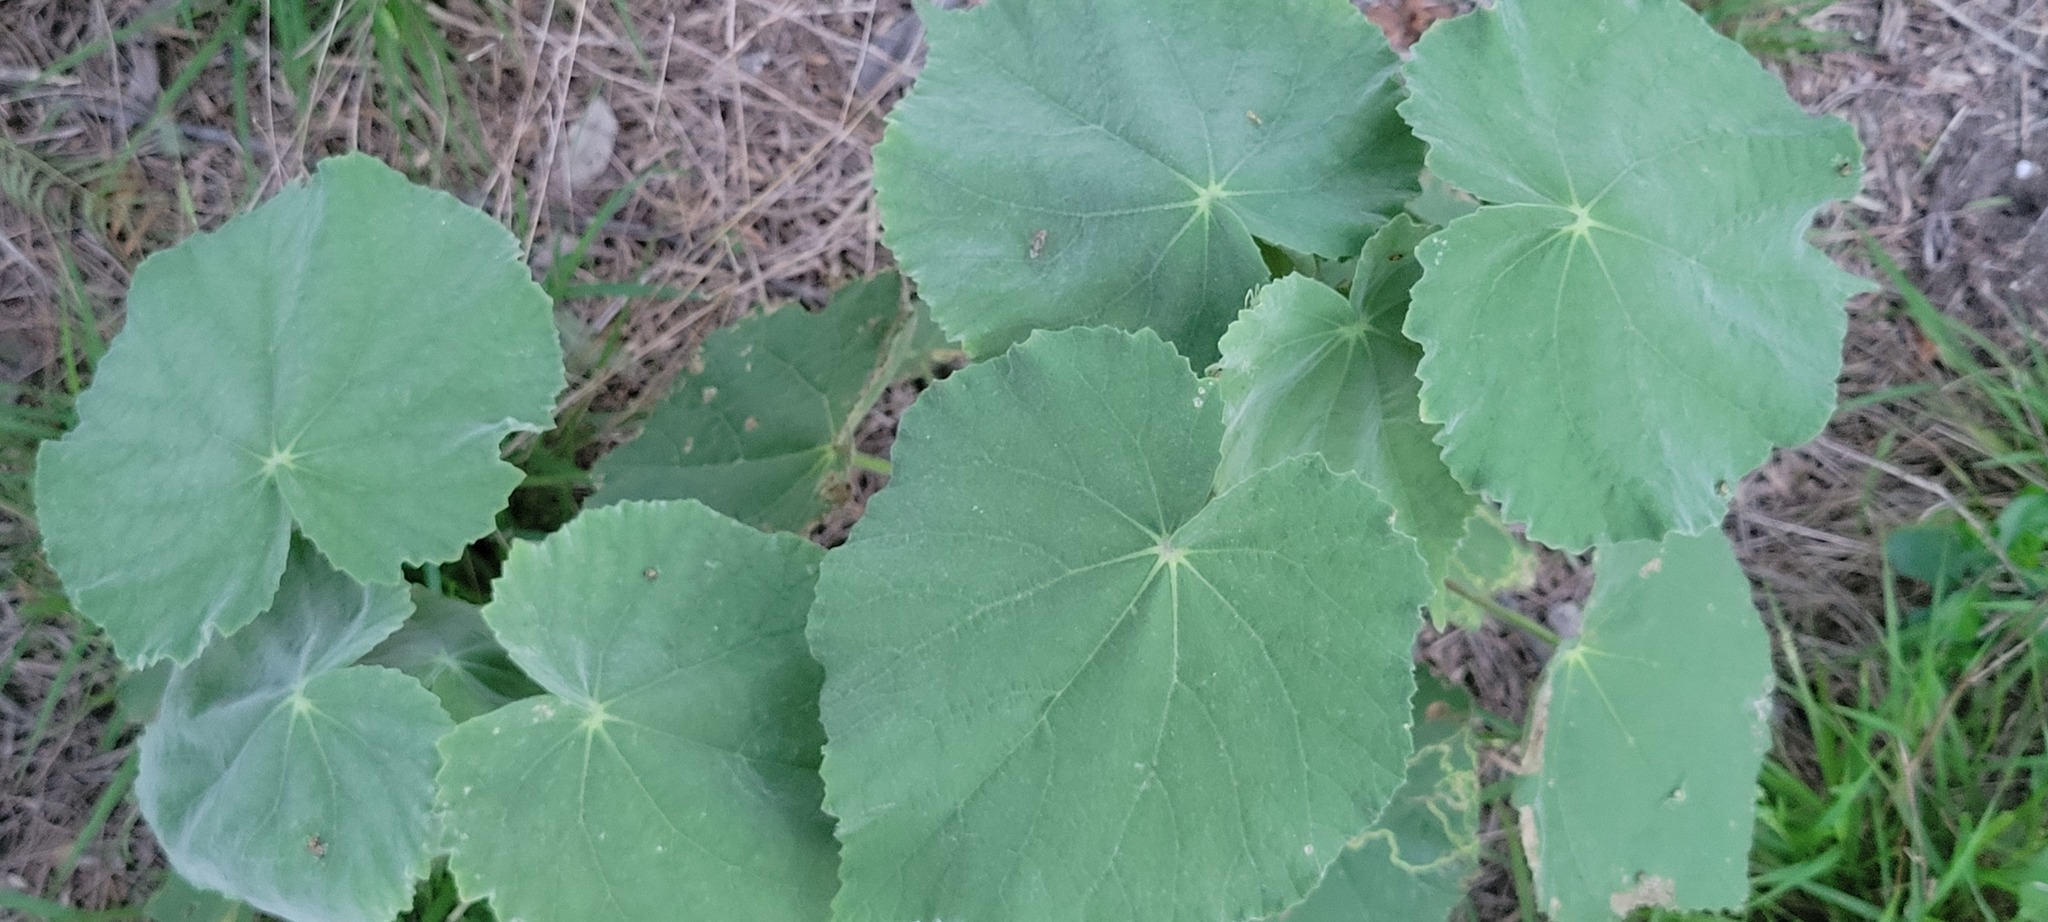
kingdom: Plantae
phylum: Tracheophyta
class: Magnoliopsida
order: Malvales
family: Malvaceae
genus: Abutilon
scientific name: Abutilon hulseanum
